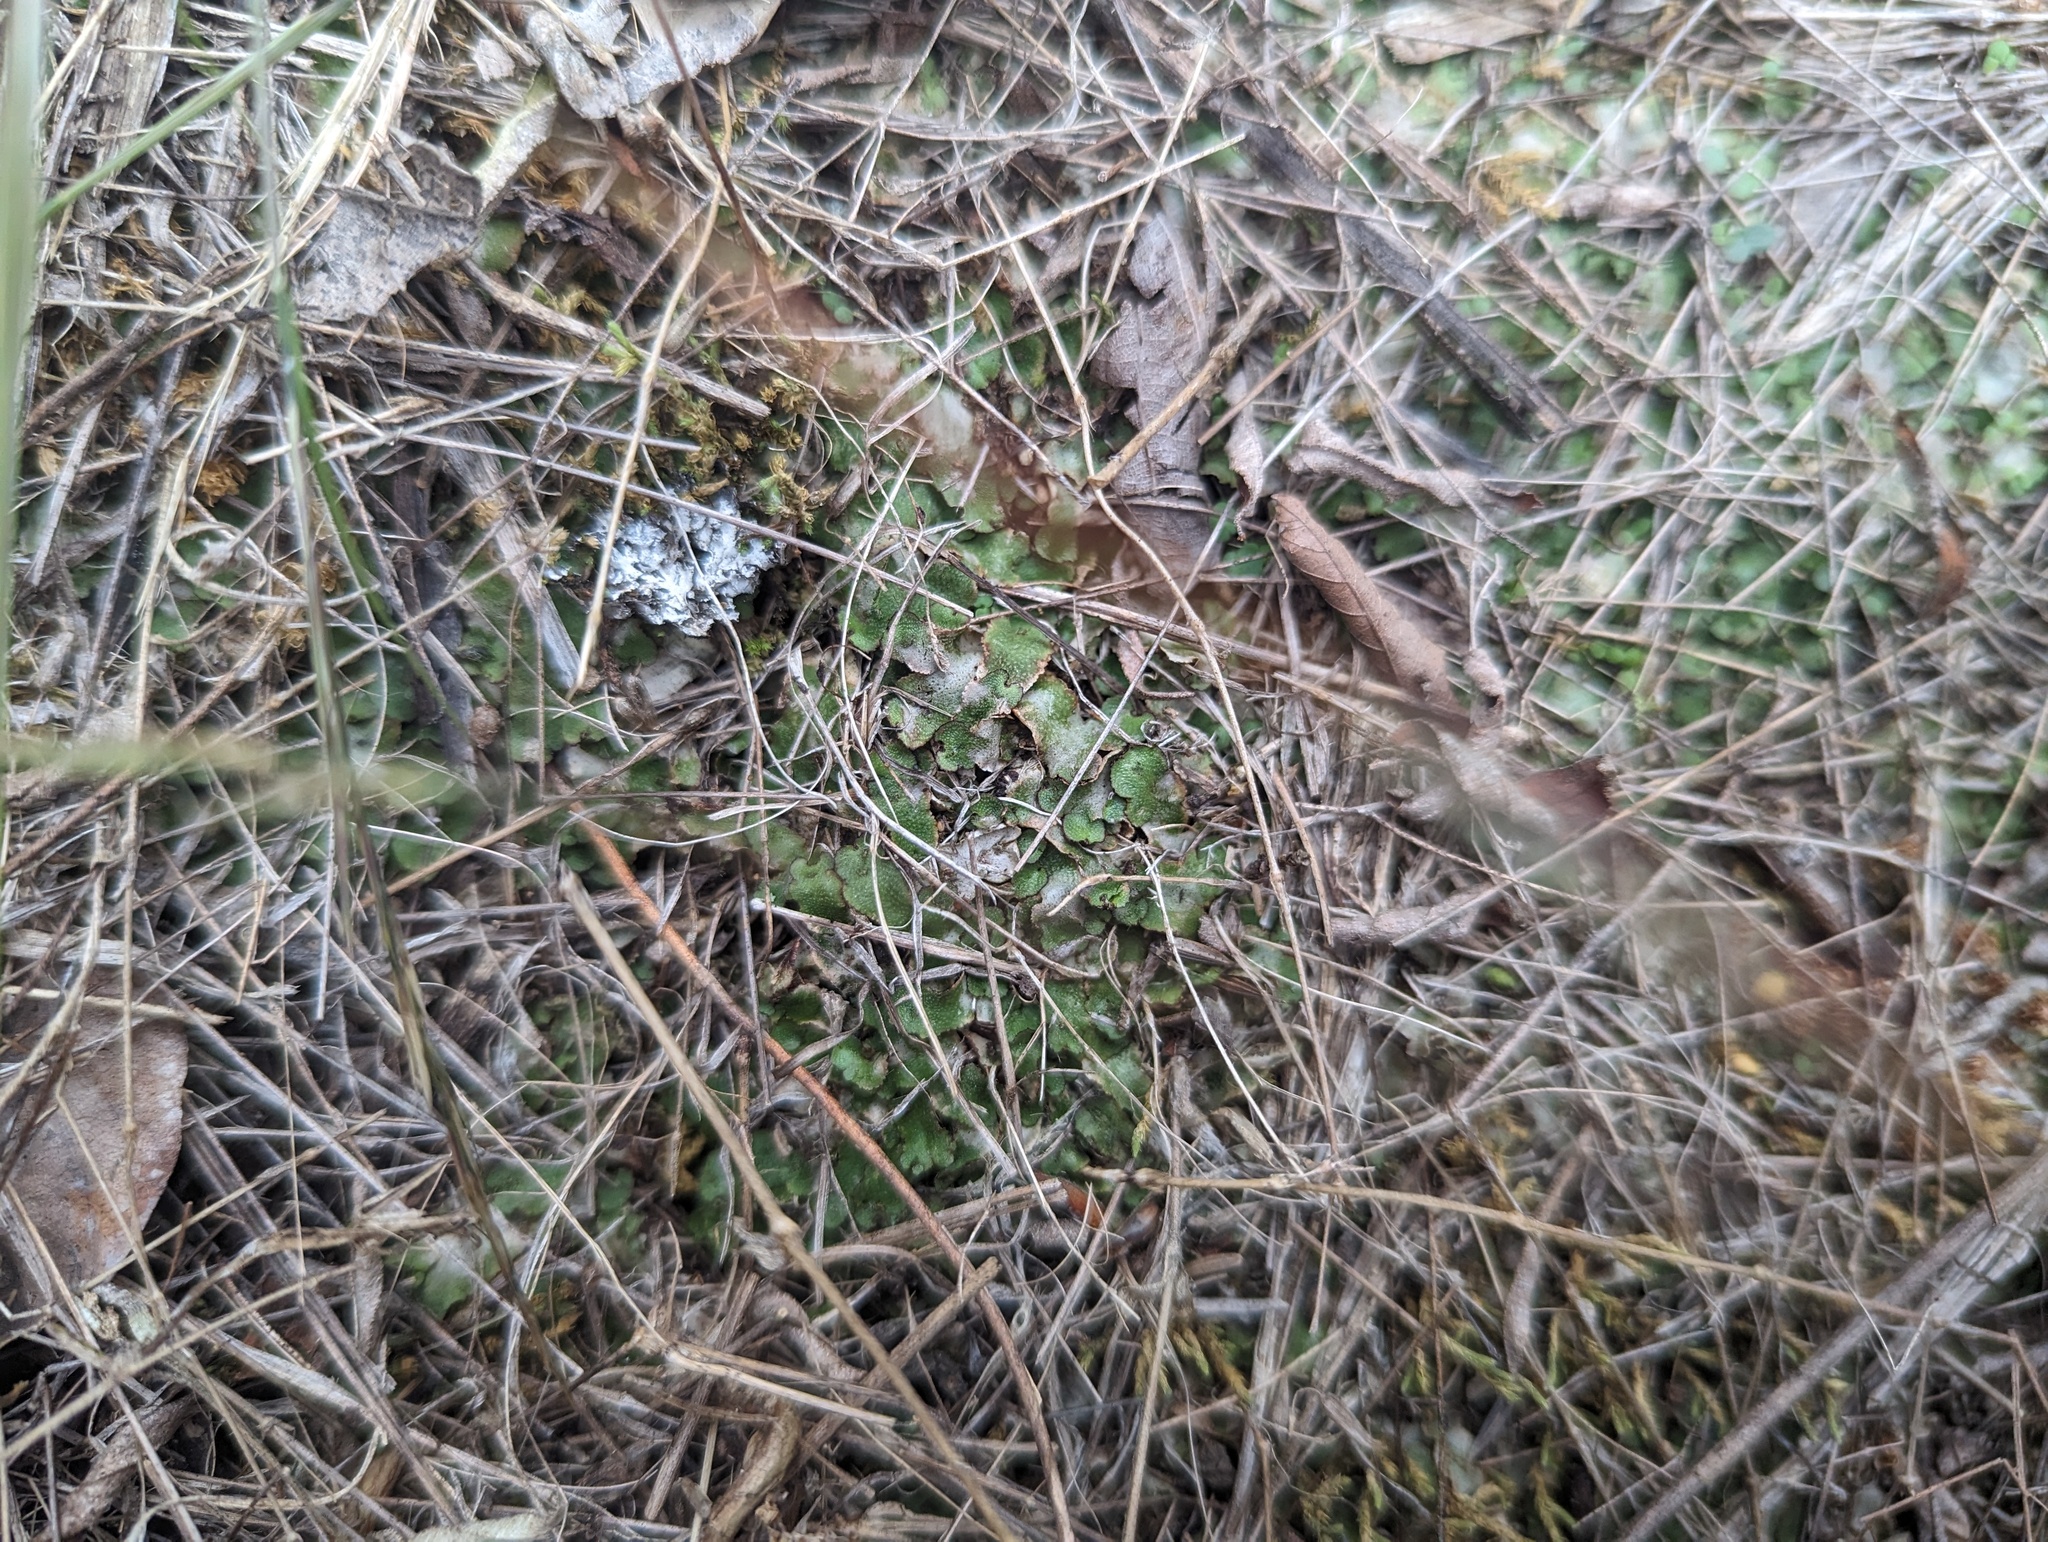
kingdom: Plantae
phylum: Marchantiophyta
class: Marchantiopsida
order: Marchantiales
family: Aytoniaceae
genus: Asterella
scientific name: Asterella tenella
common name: Delicate starwort
